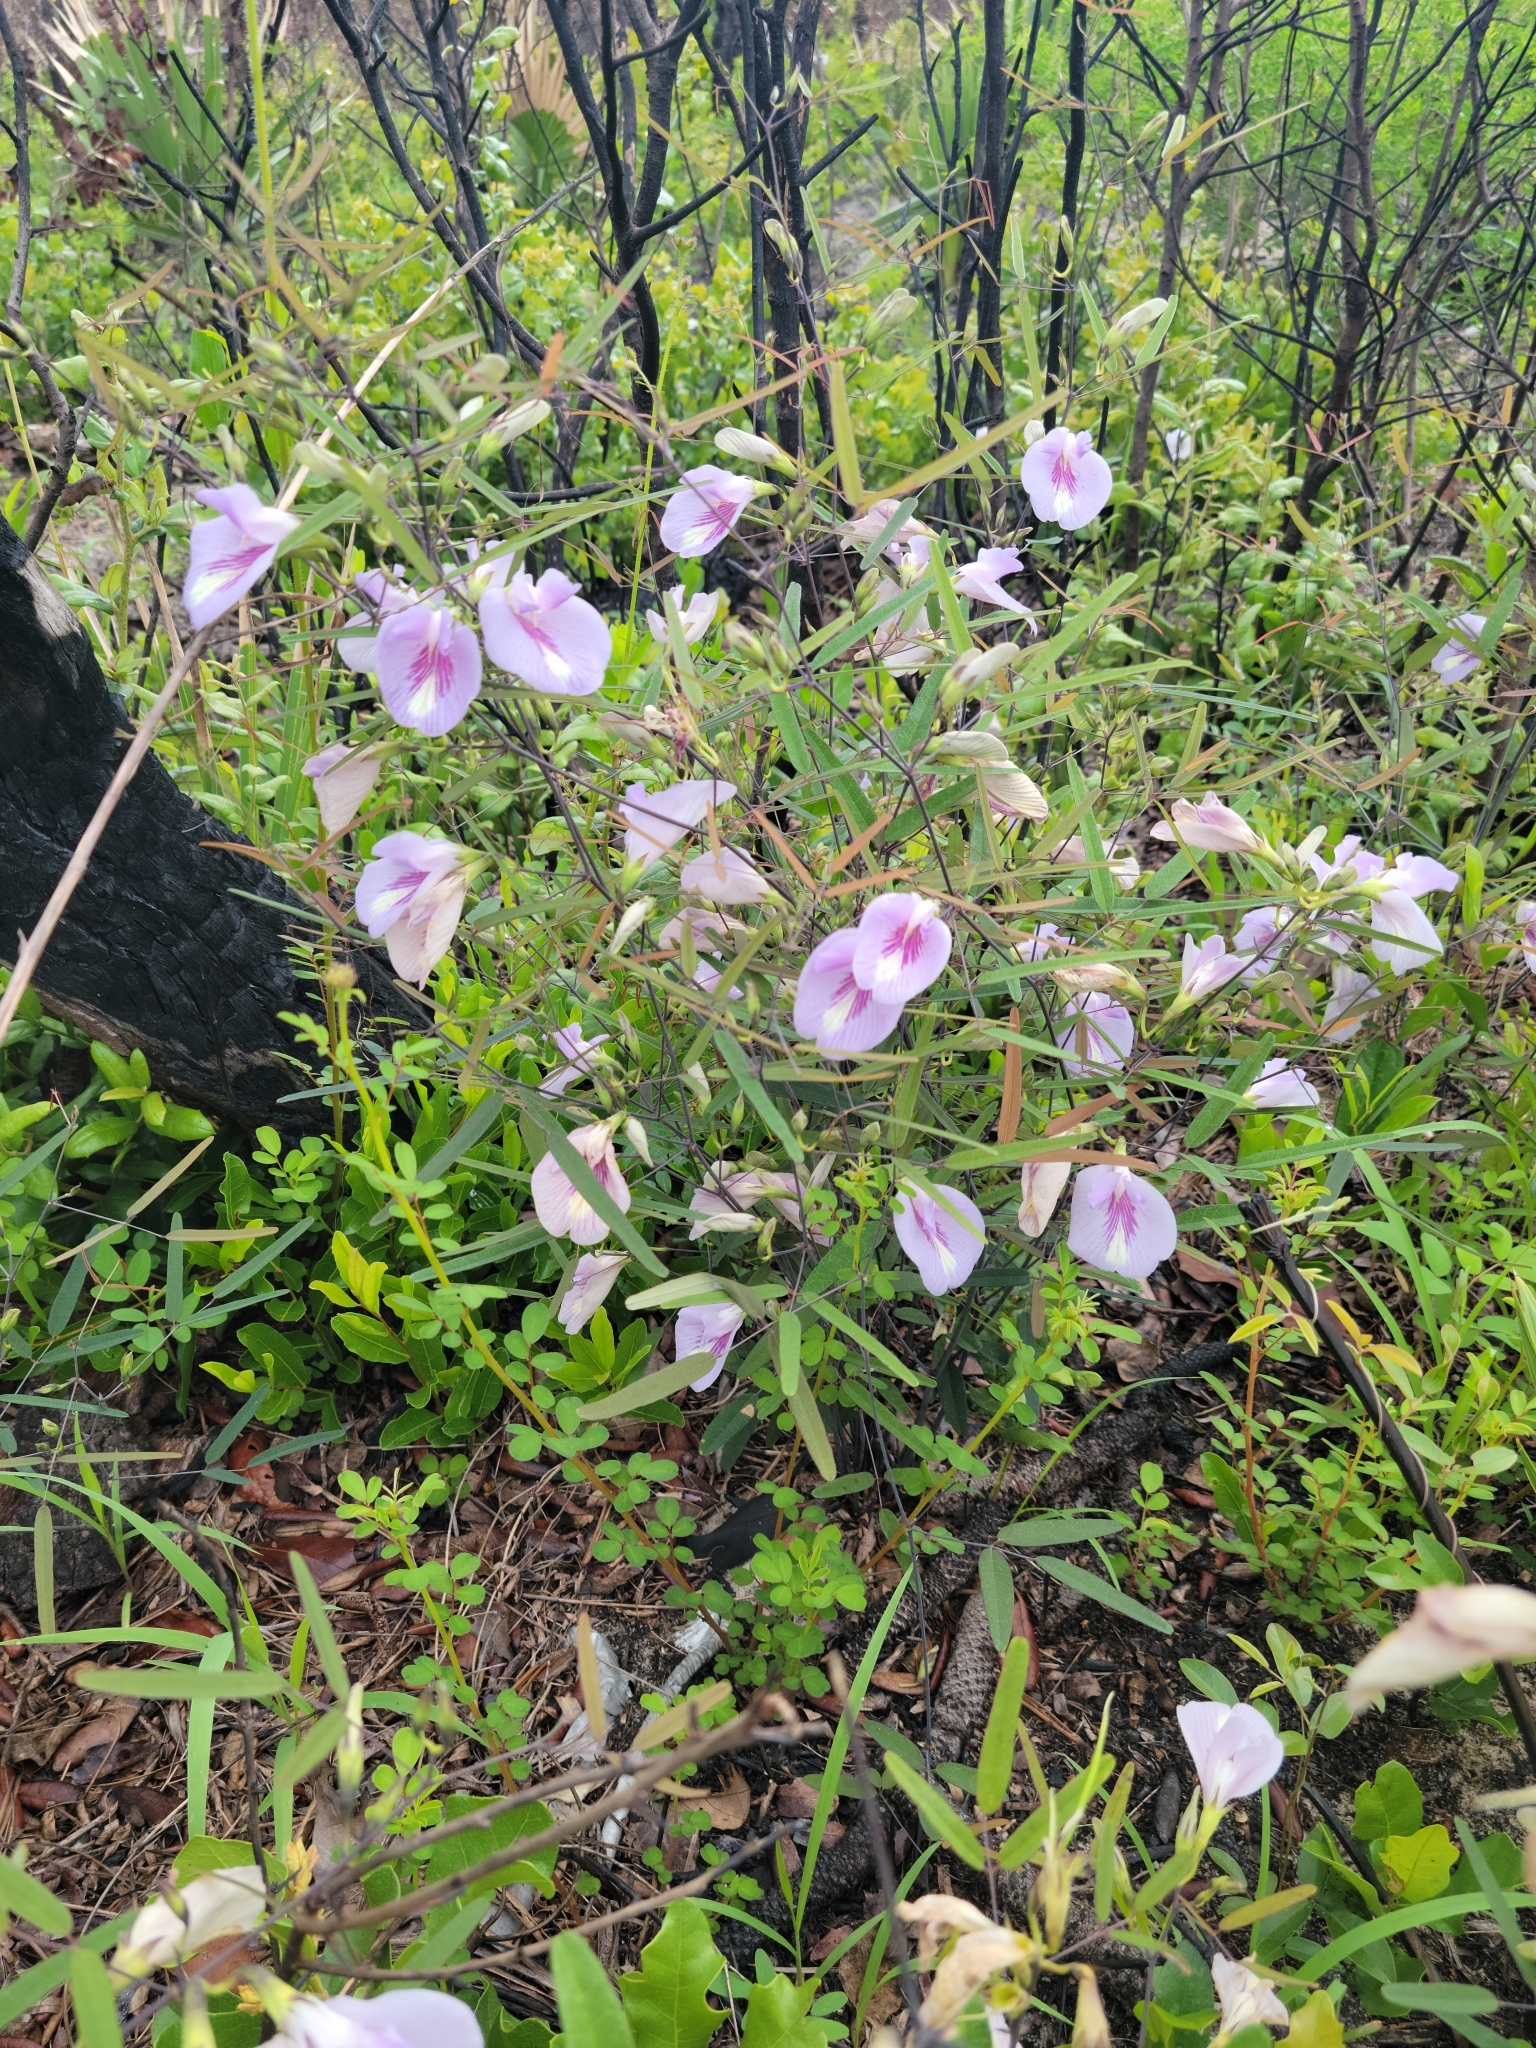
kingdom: Plantae
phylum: Tracheophyta
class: Magnoliopsida
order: Fabales
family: Fabaceae
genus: Clitoria
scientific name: Clitoria fragrans
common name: Pigeon-wings
